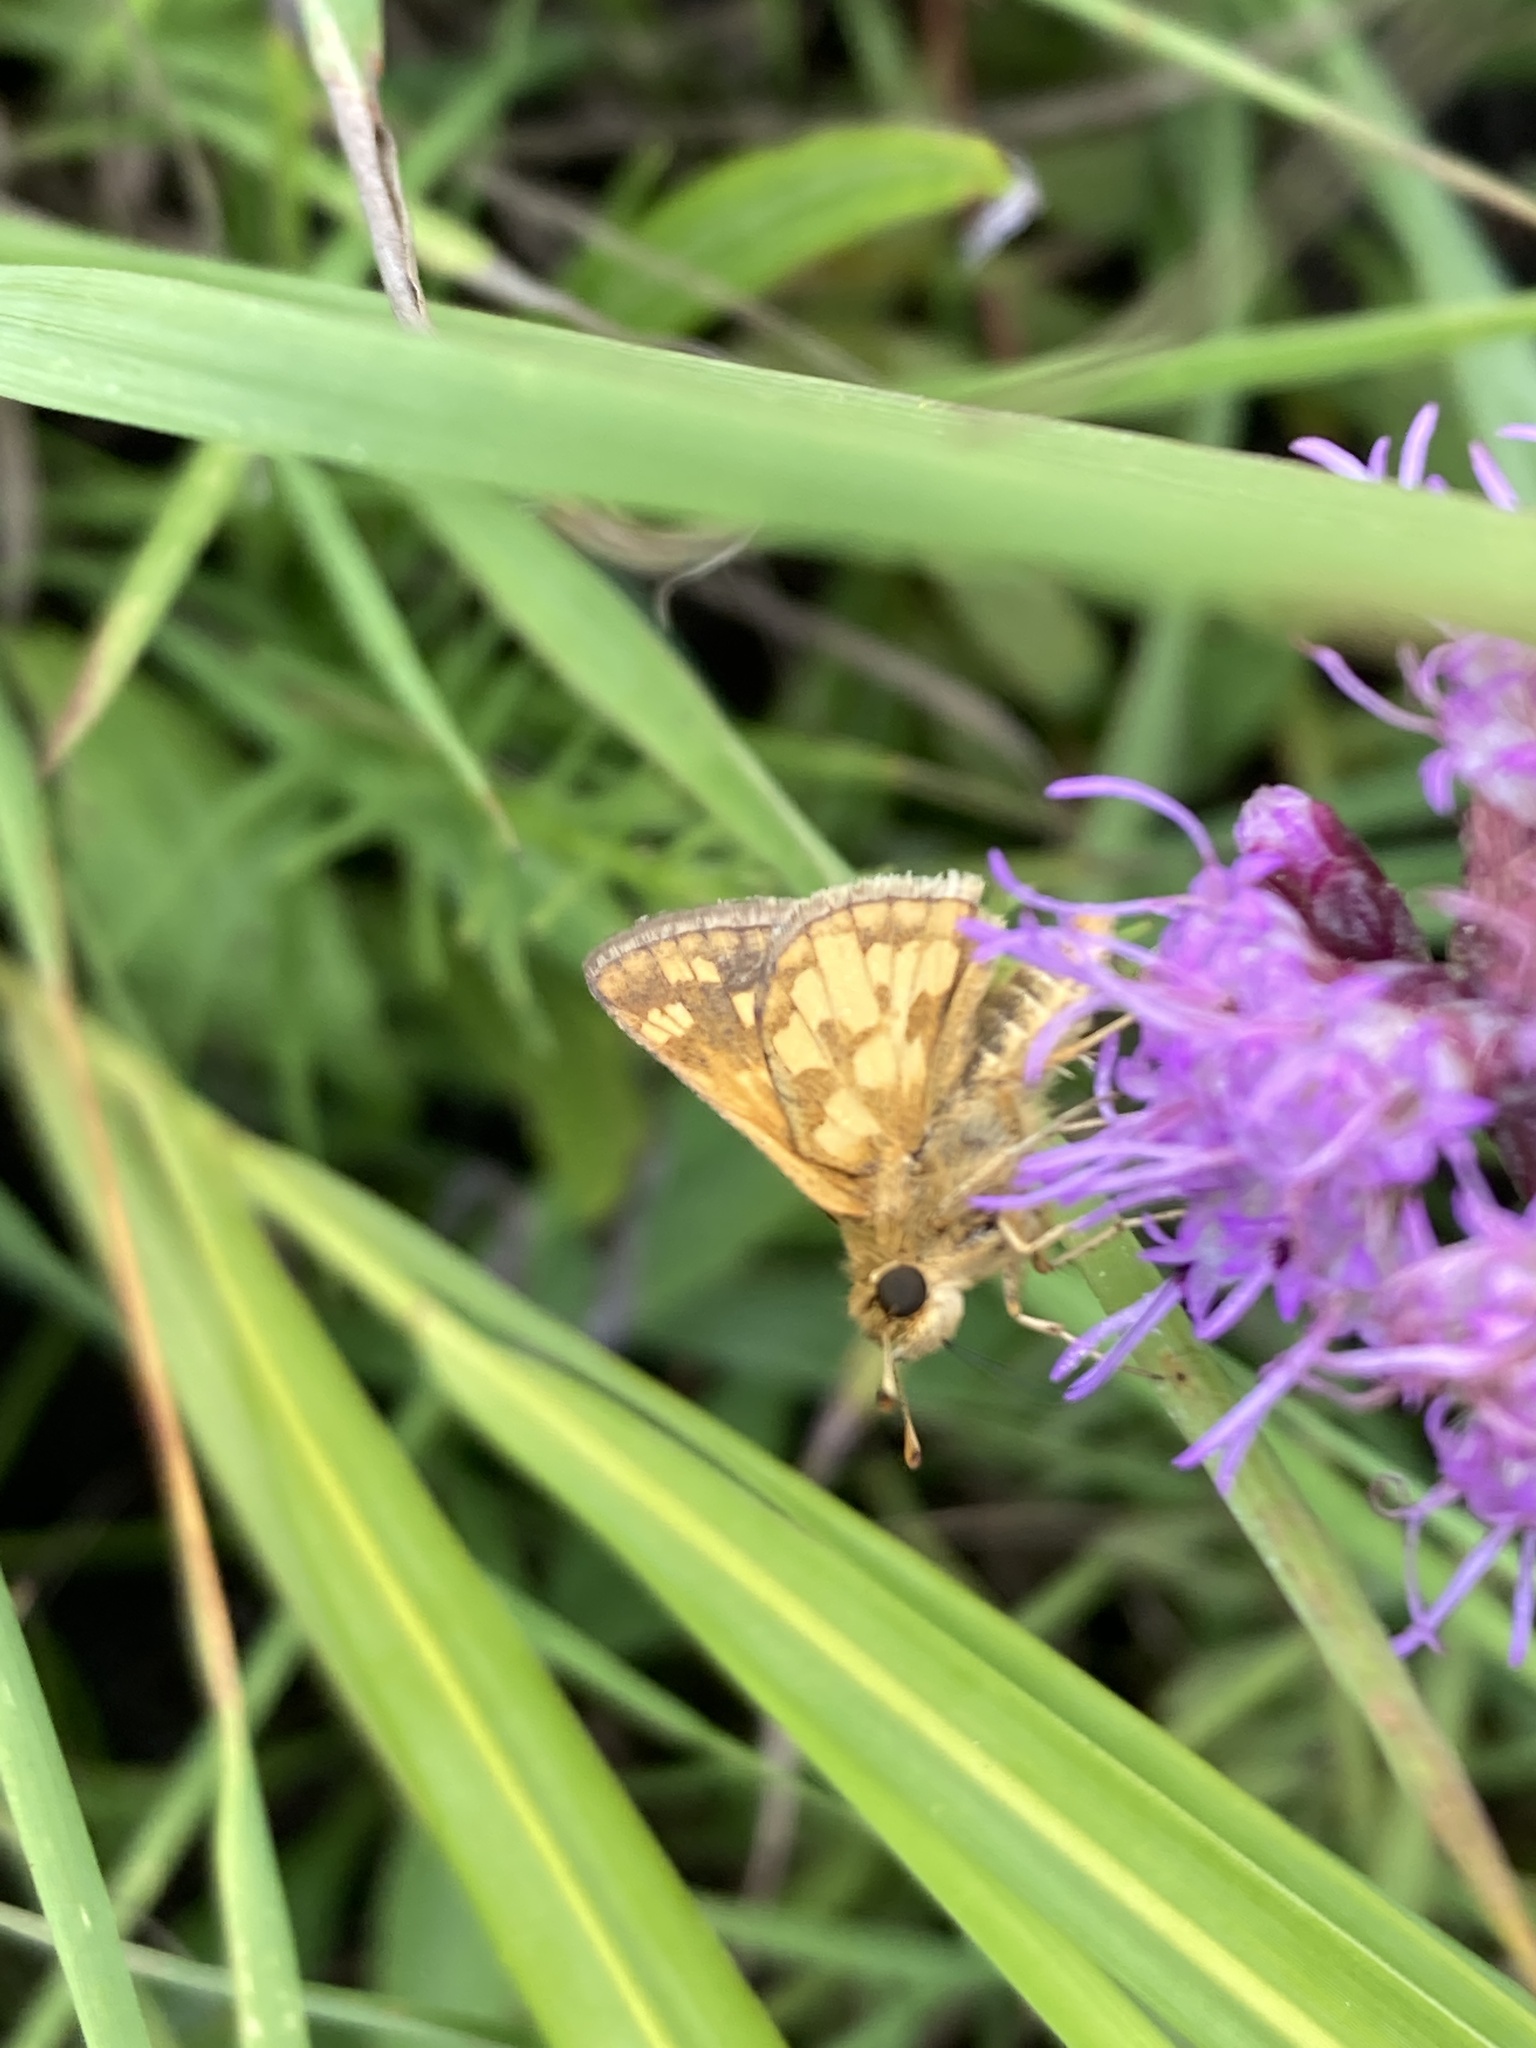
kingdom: Animalia
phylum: Arthropoda
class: Insecta
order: Lepidoptera
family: Hesperiidae
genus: Polites
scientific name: Polites coras
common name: Peck's skipper
